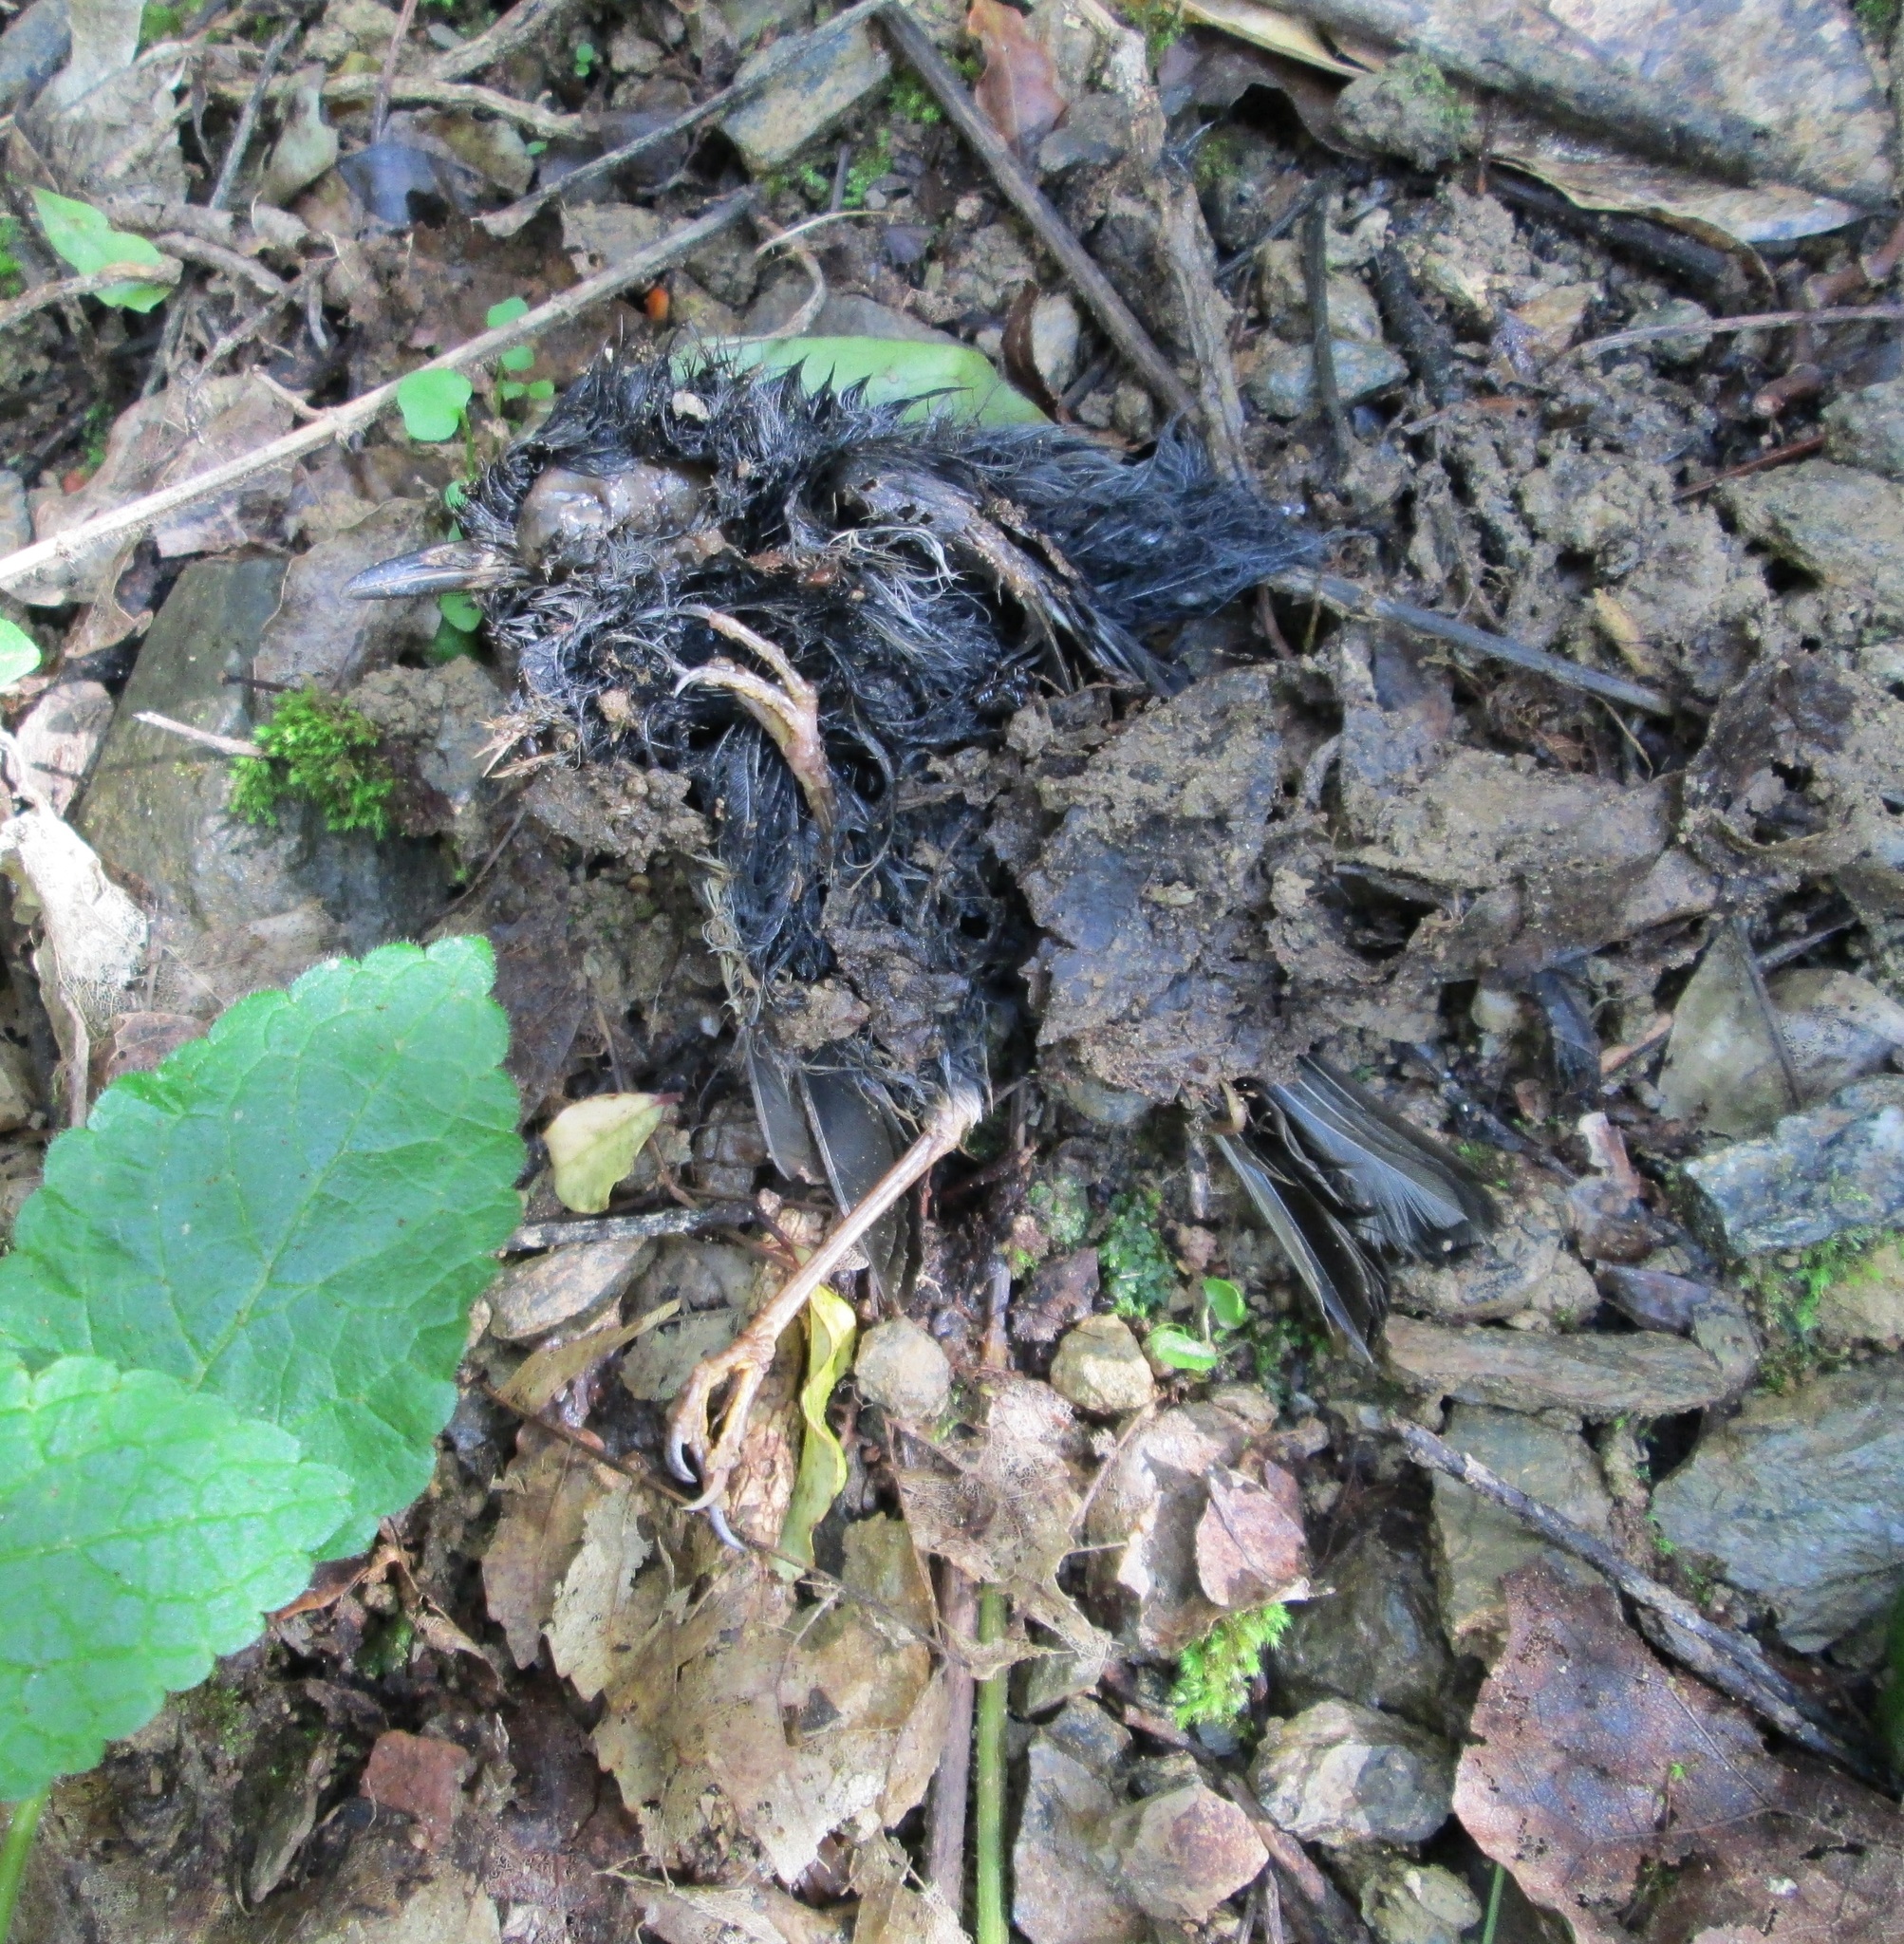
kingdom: Animalia
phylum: Chordata
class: Aves
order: Passeriformes
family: Petroicidae
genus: Petroica
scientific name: Petroica australis
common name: New zealand robin
